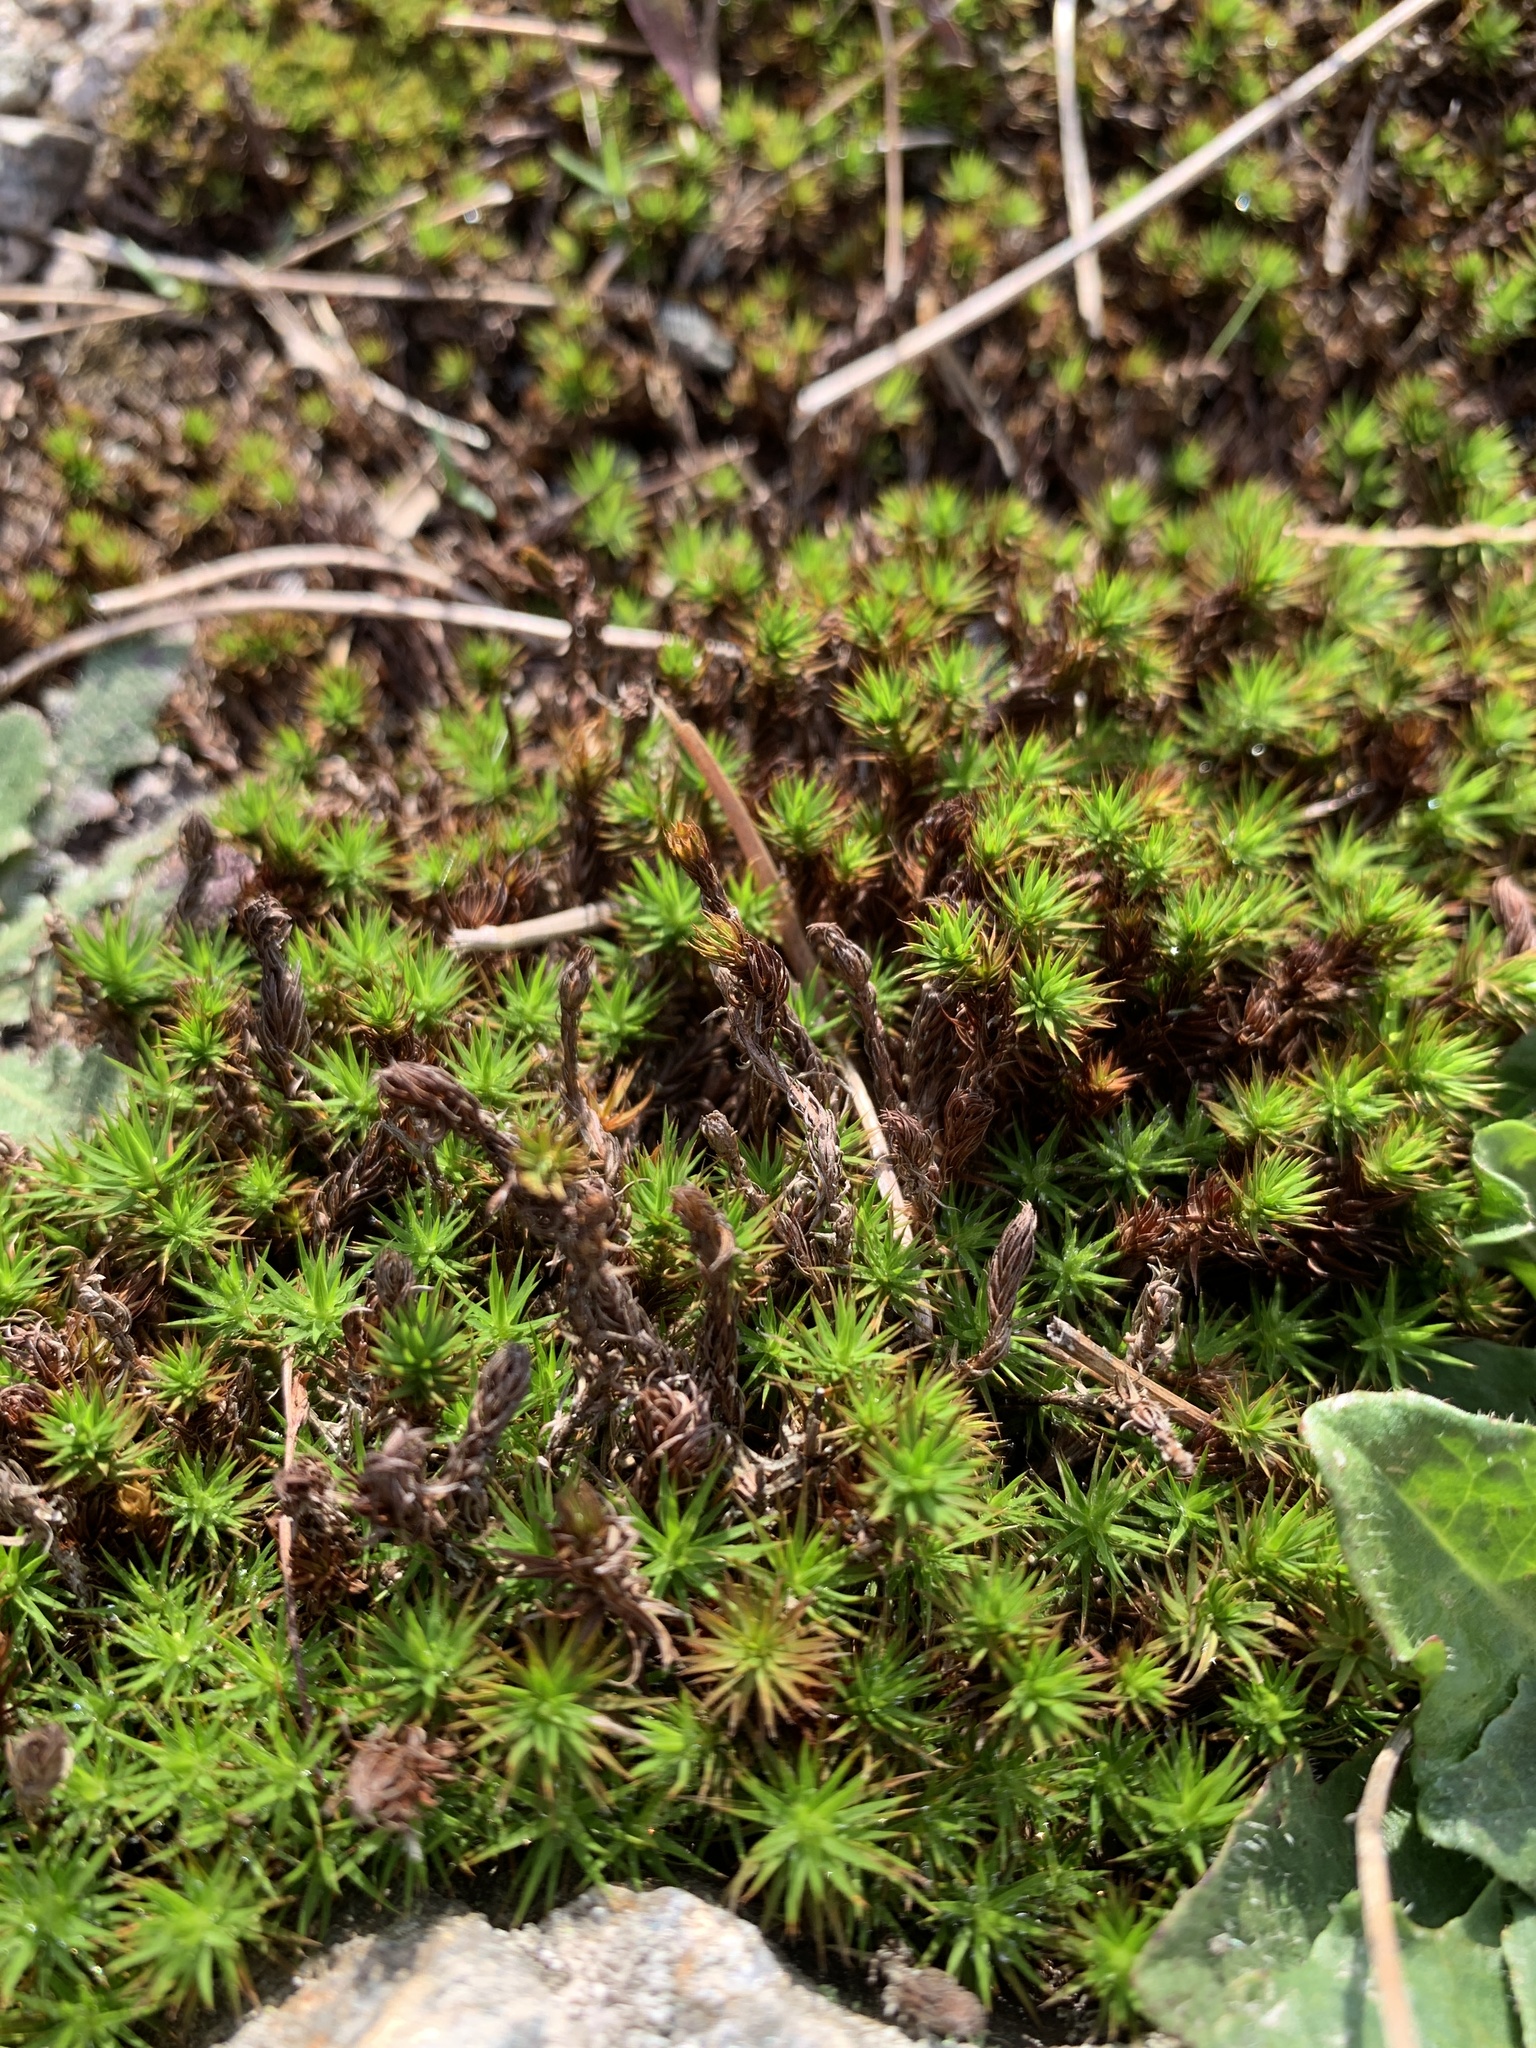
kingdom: Plantae
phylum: Bryophyta
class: Polytrichopsida
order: Polytrichales
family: Polytrichaceae
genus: Polytrichum
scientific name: Polytrichum juniperinum
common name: Juniper haircap moss
